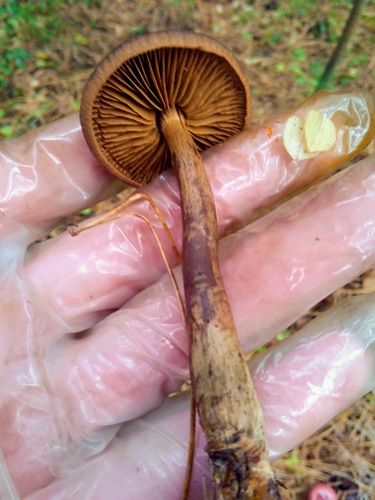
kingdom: Fungi
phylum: Basidiomycota
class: Agaricomycetes
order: Agaricales
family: Cortinariaceae
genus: Cortinarius
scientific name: Cortinarius
